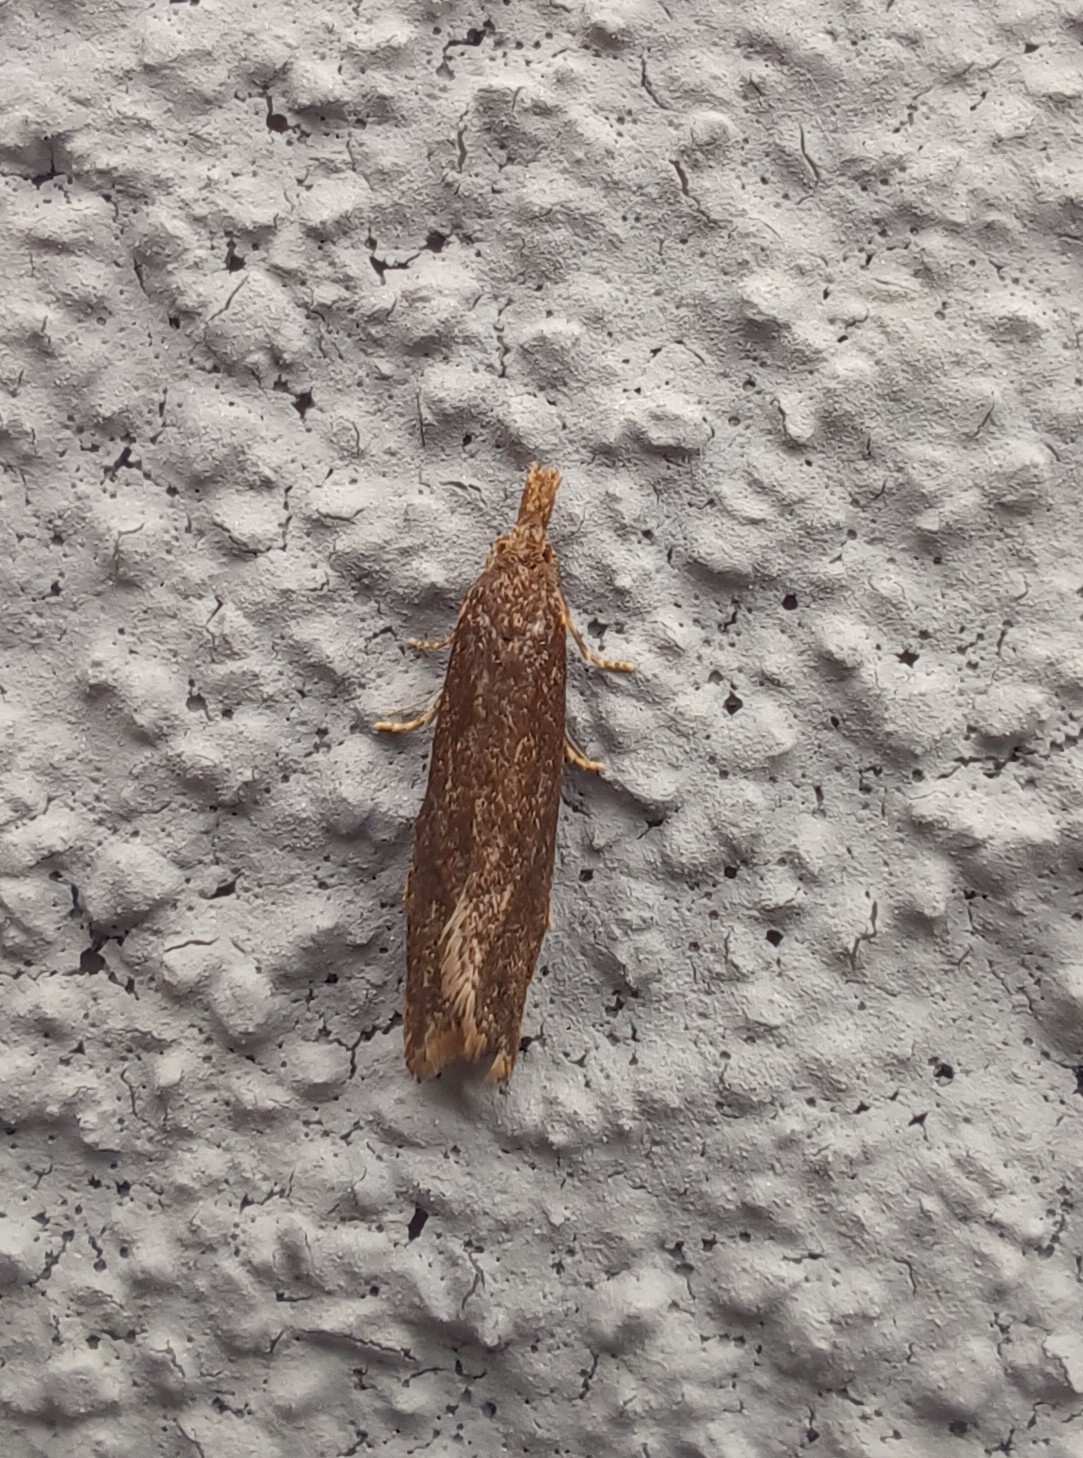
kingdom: Animalia
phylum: Arthropoda
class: Insecta
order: Lepidoptera
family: Tortricidae
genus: Aethes
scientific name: Aethes biscana
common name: Reddish aethes
